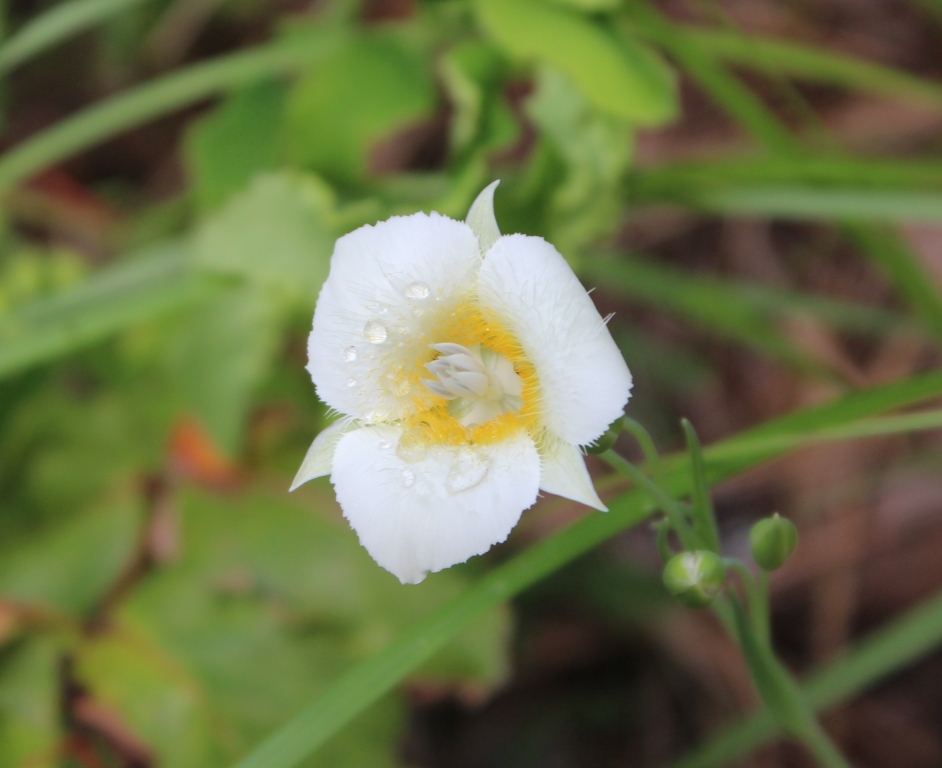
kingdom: Plantae
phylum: Tracheophyta
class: Liliopsida
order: Liliales
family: Liliaceae
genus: Calochortus
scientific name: Calochortus apiculatus
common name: Baker's mariposa lily
